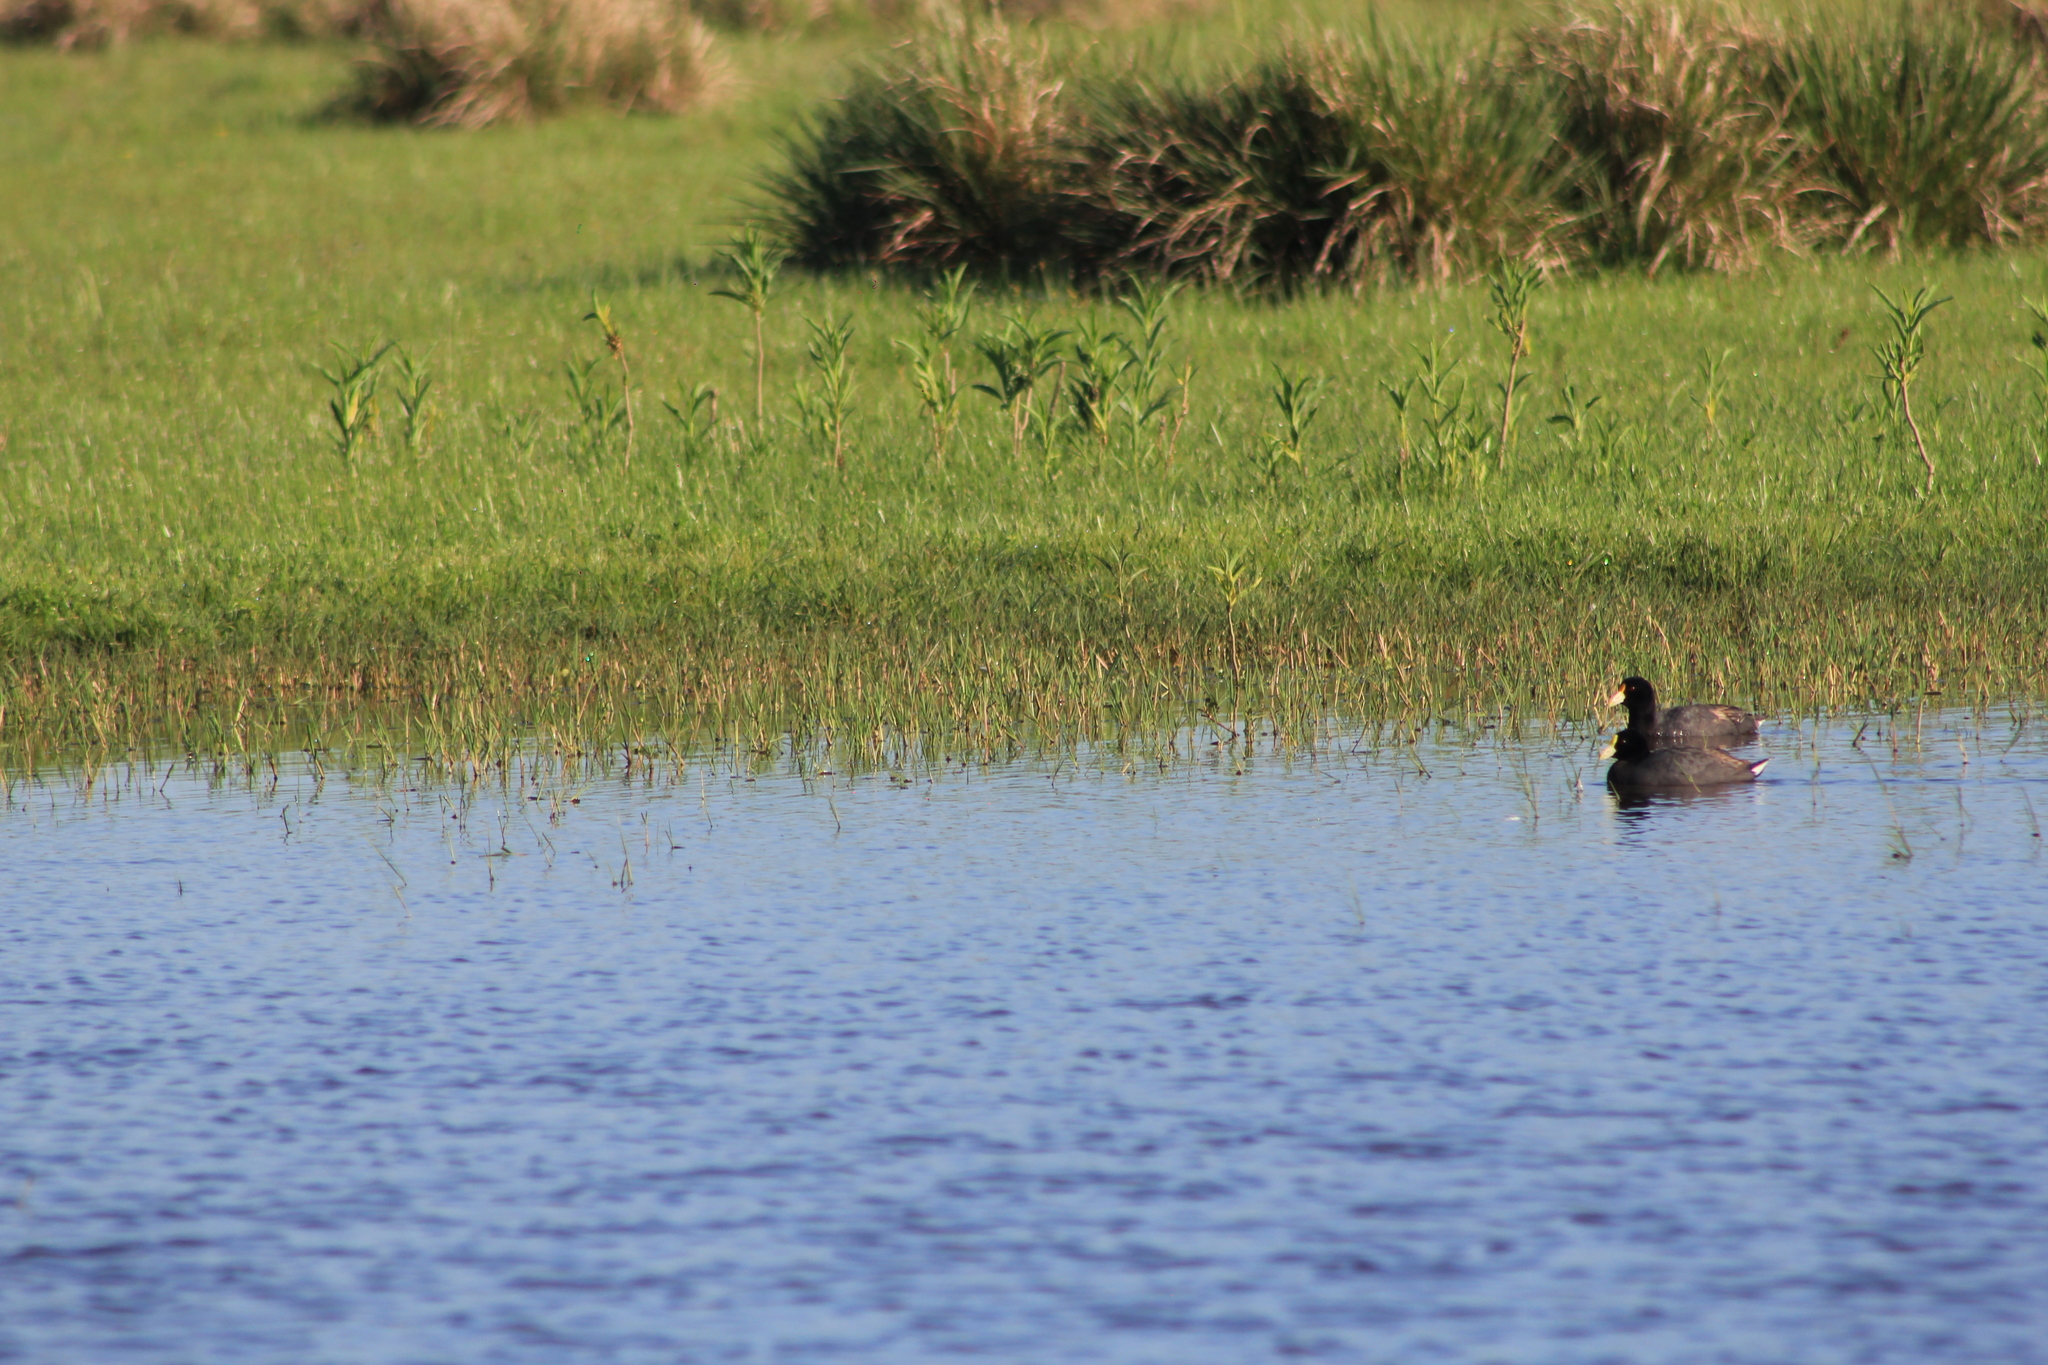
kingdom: Animalia
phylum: Chordata
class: Aves
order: Gruiformes
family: Rallidae
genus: Fulica
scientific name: Fulica leucoptera
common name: White-winged coot
